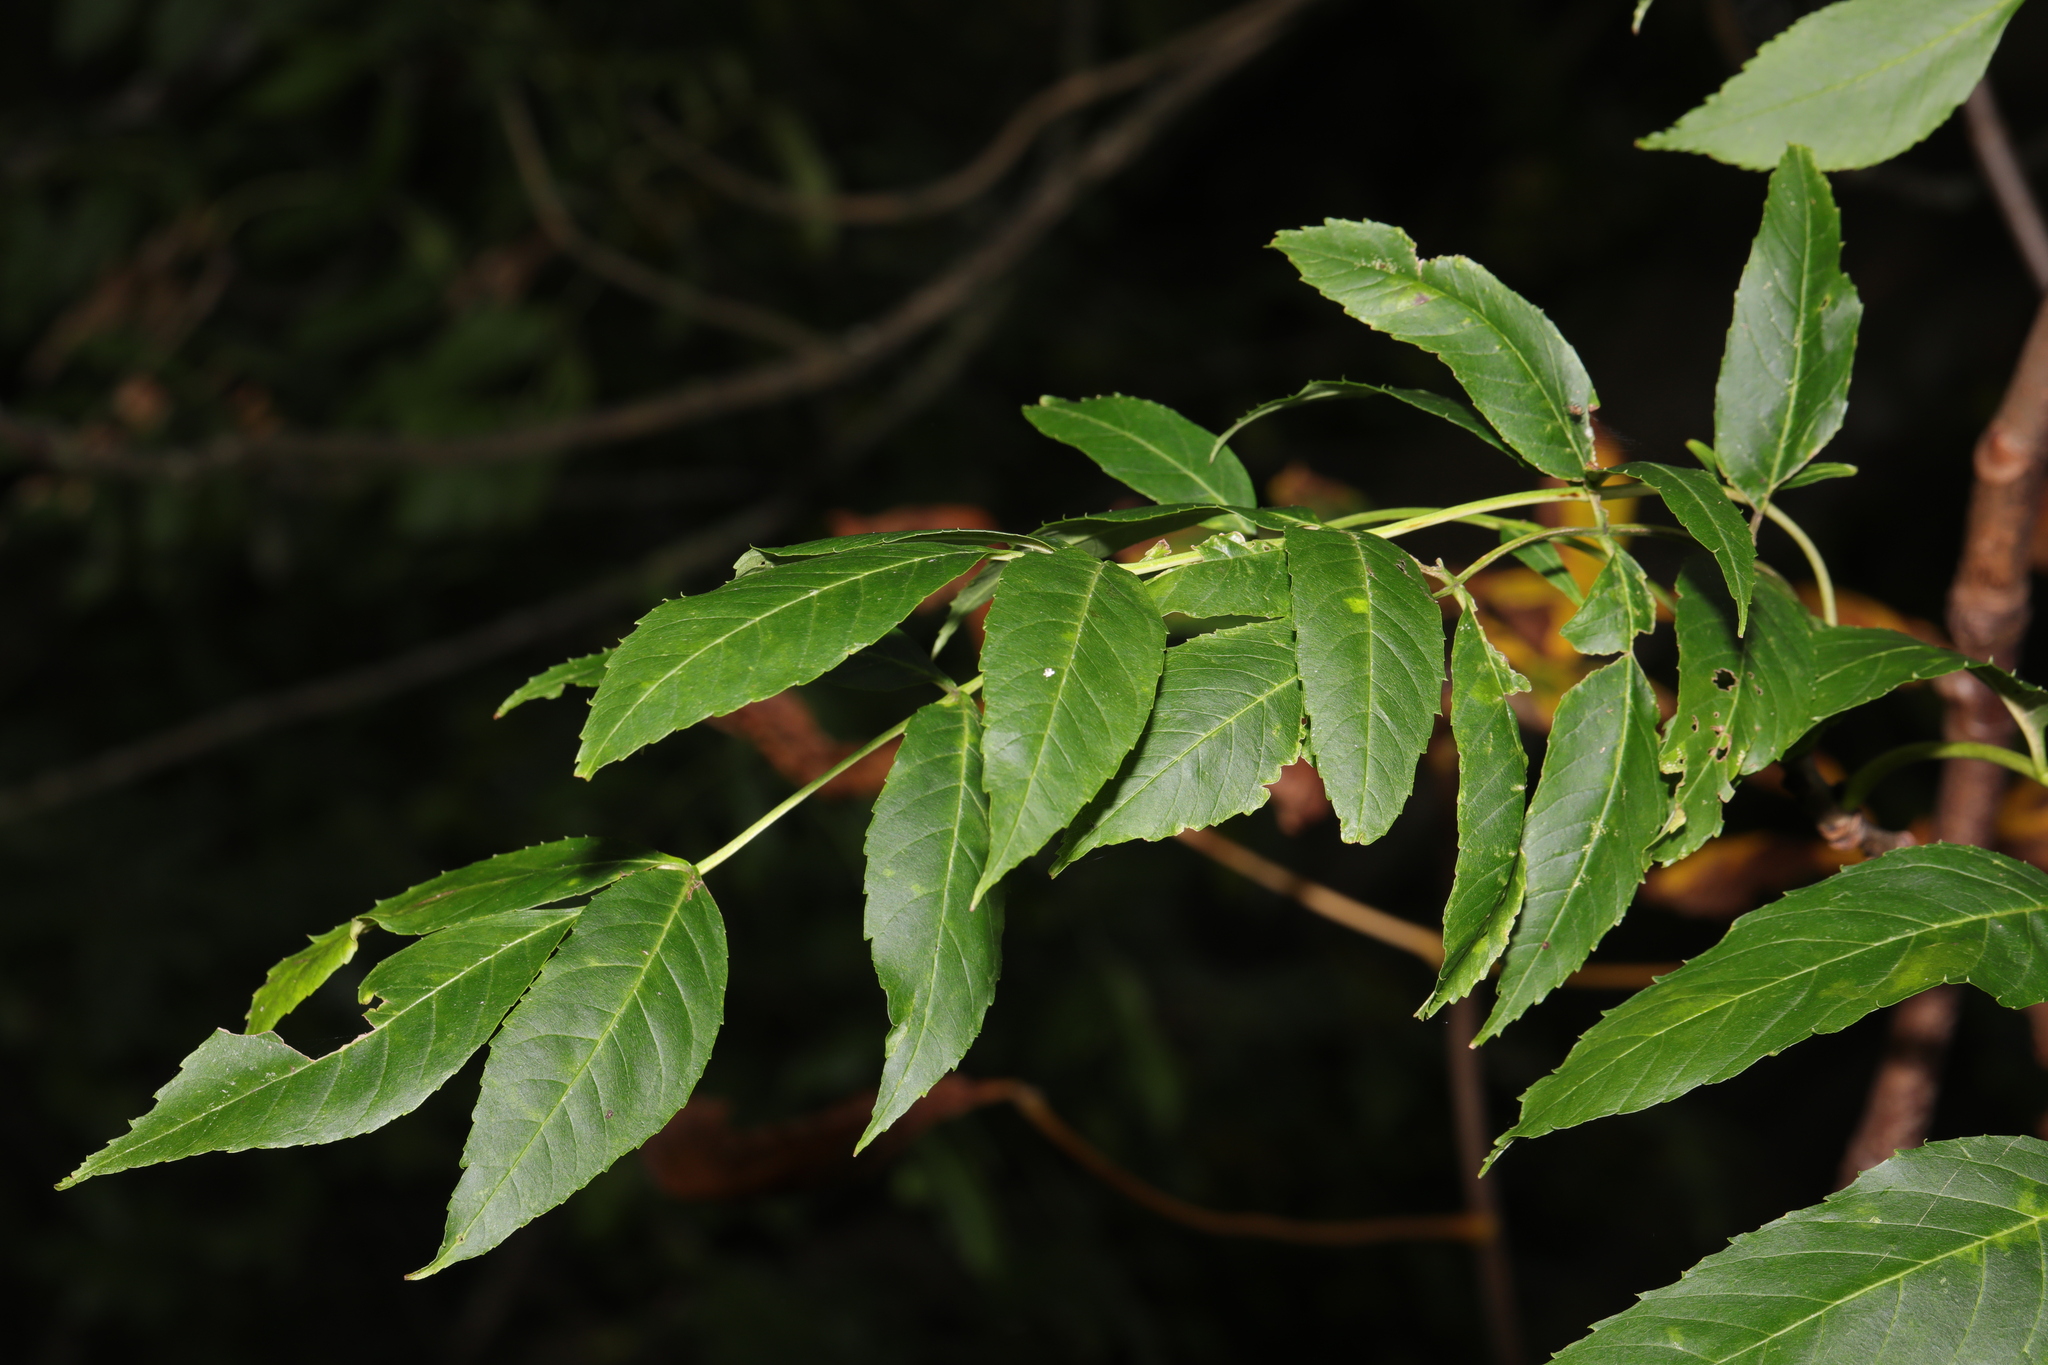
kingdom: Plantae
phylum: Tracheophyta
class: Magnoliopsida
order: Lamiales
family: Oleaceae
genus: Fraxinus
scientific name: Fraxinus excelsior
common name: European ash
